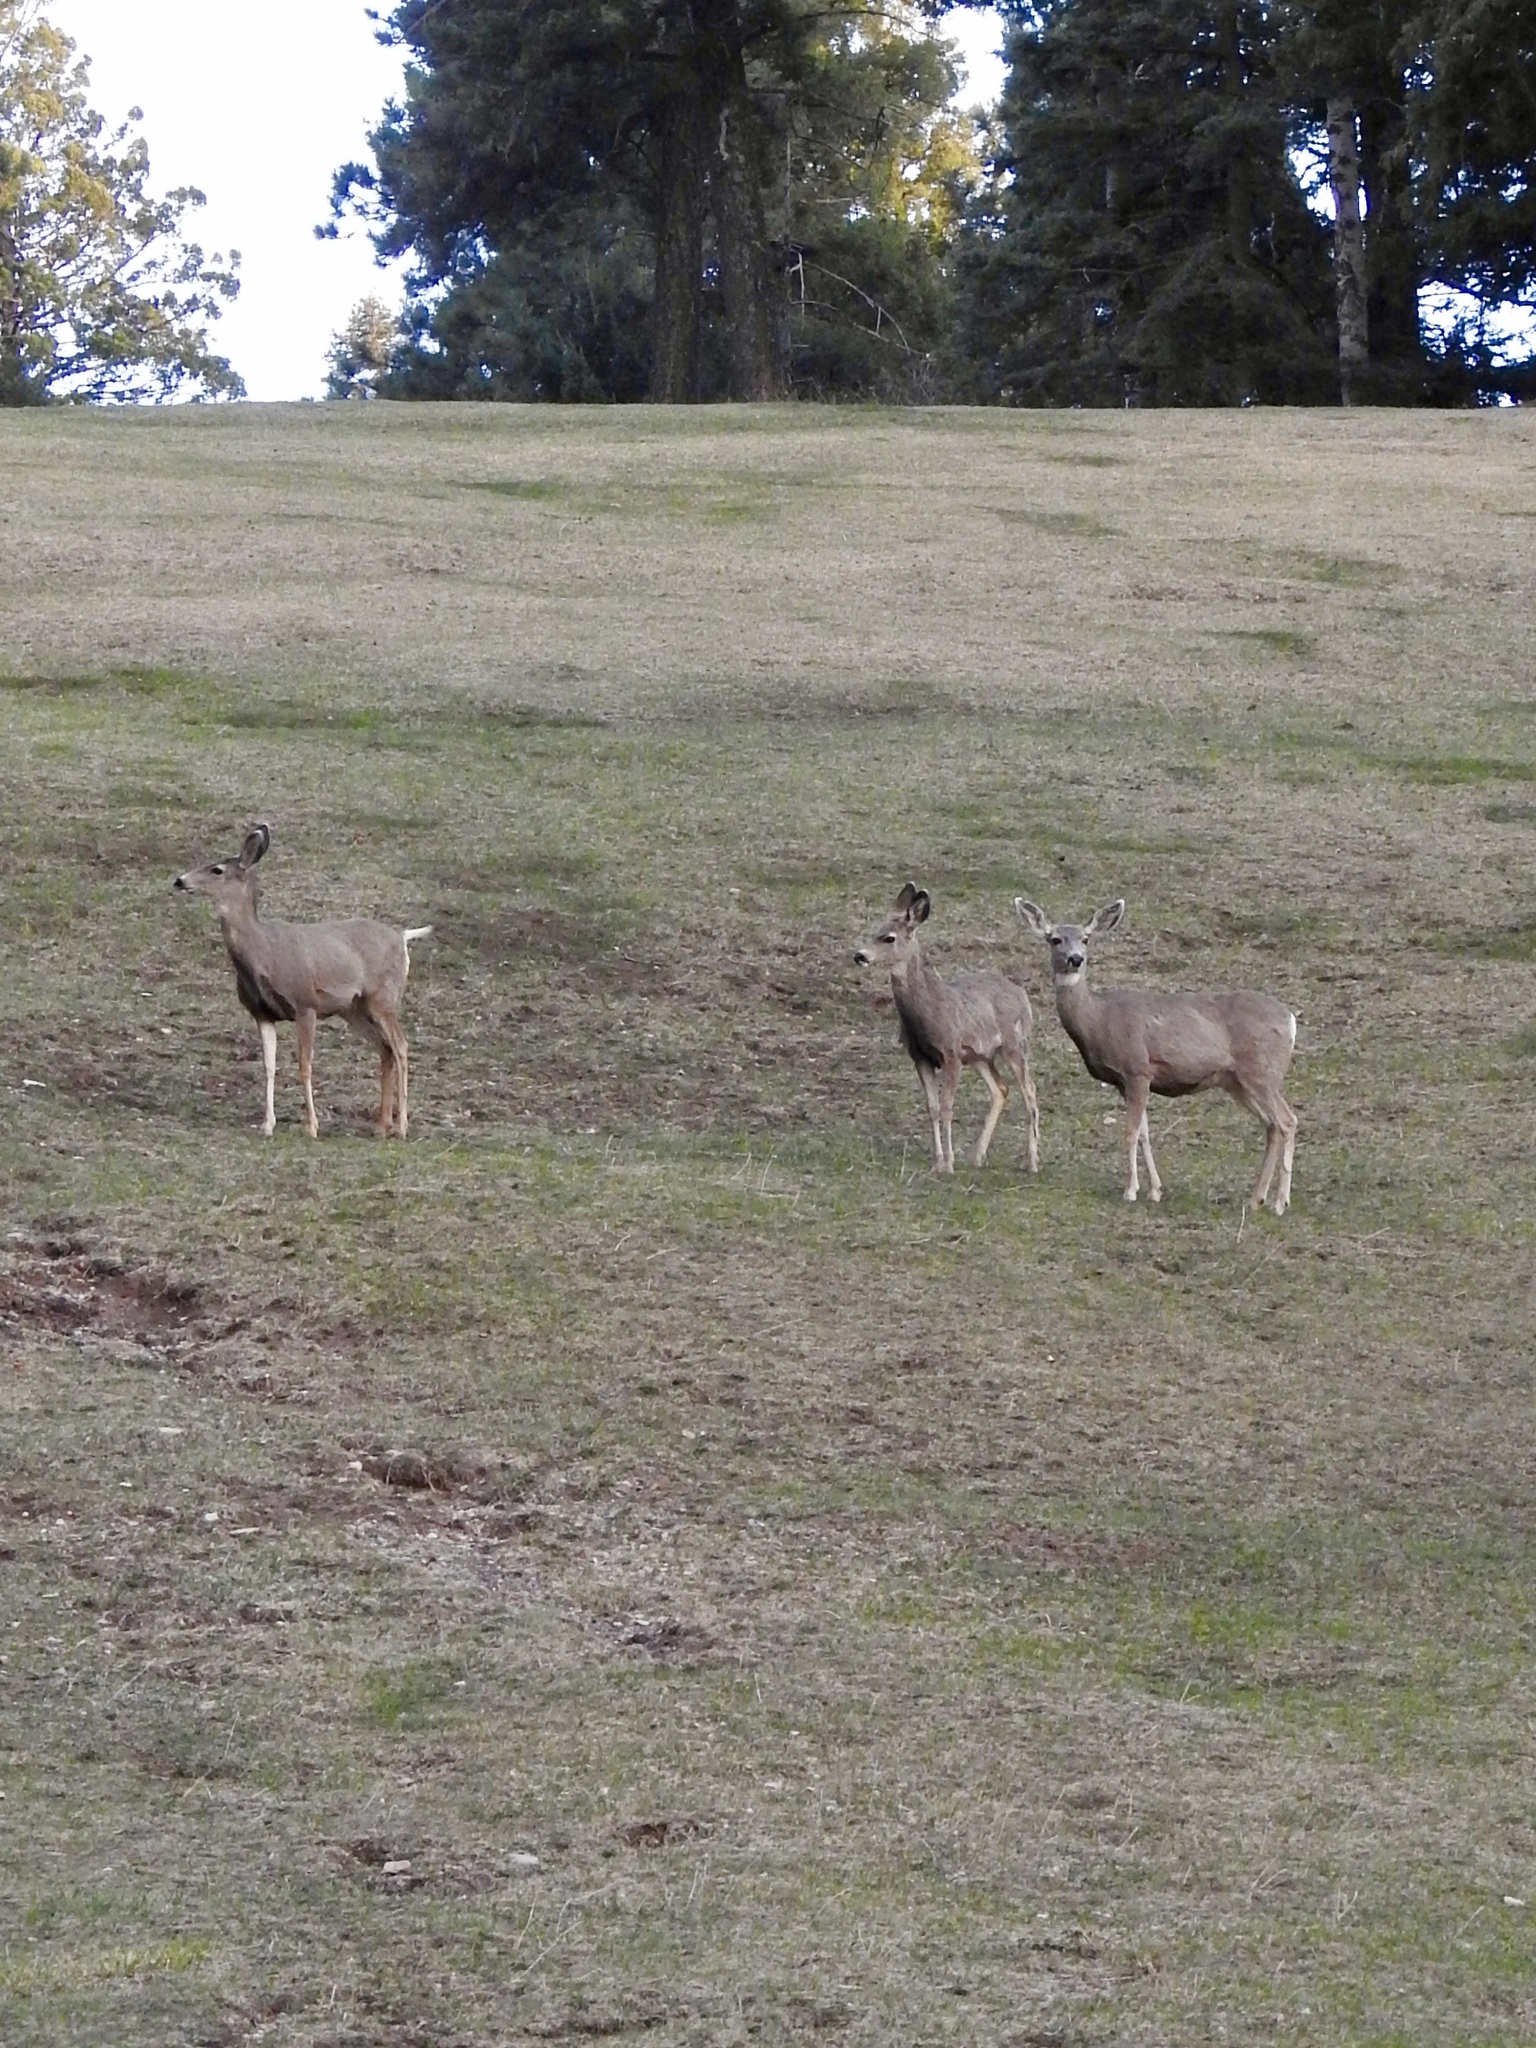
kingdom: Animalia
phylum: Chordata
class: Mammalia
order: Artiodactyla
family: Cervidae
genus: Odocoileus
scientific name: Odocoileus hemionus
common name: Mule deer
